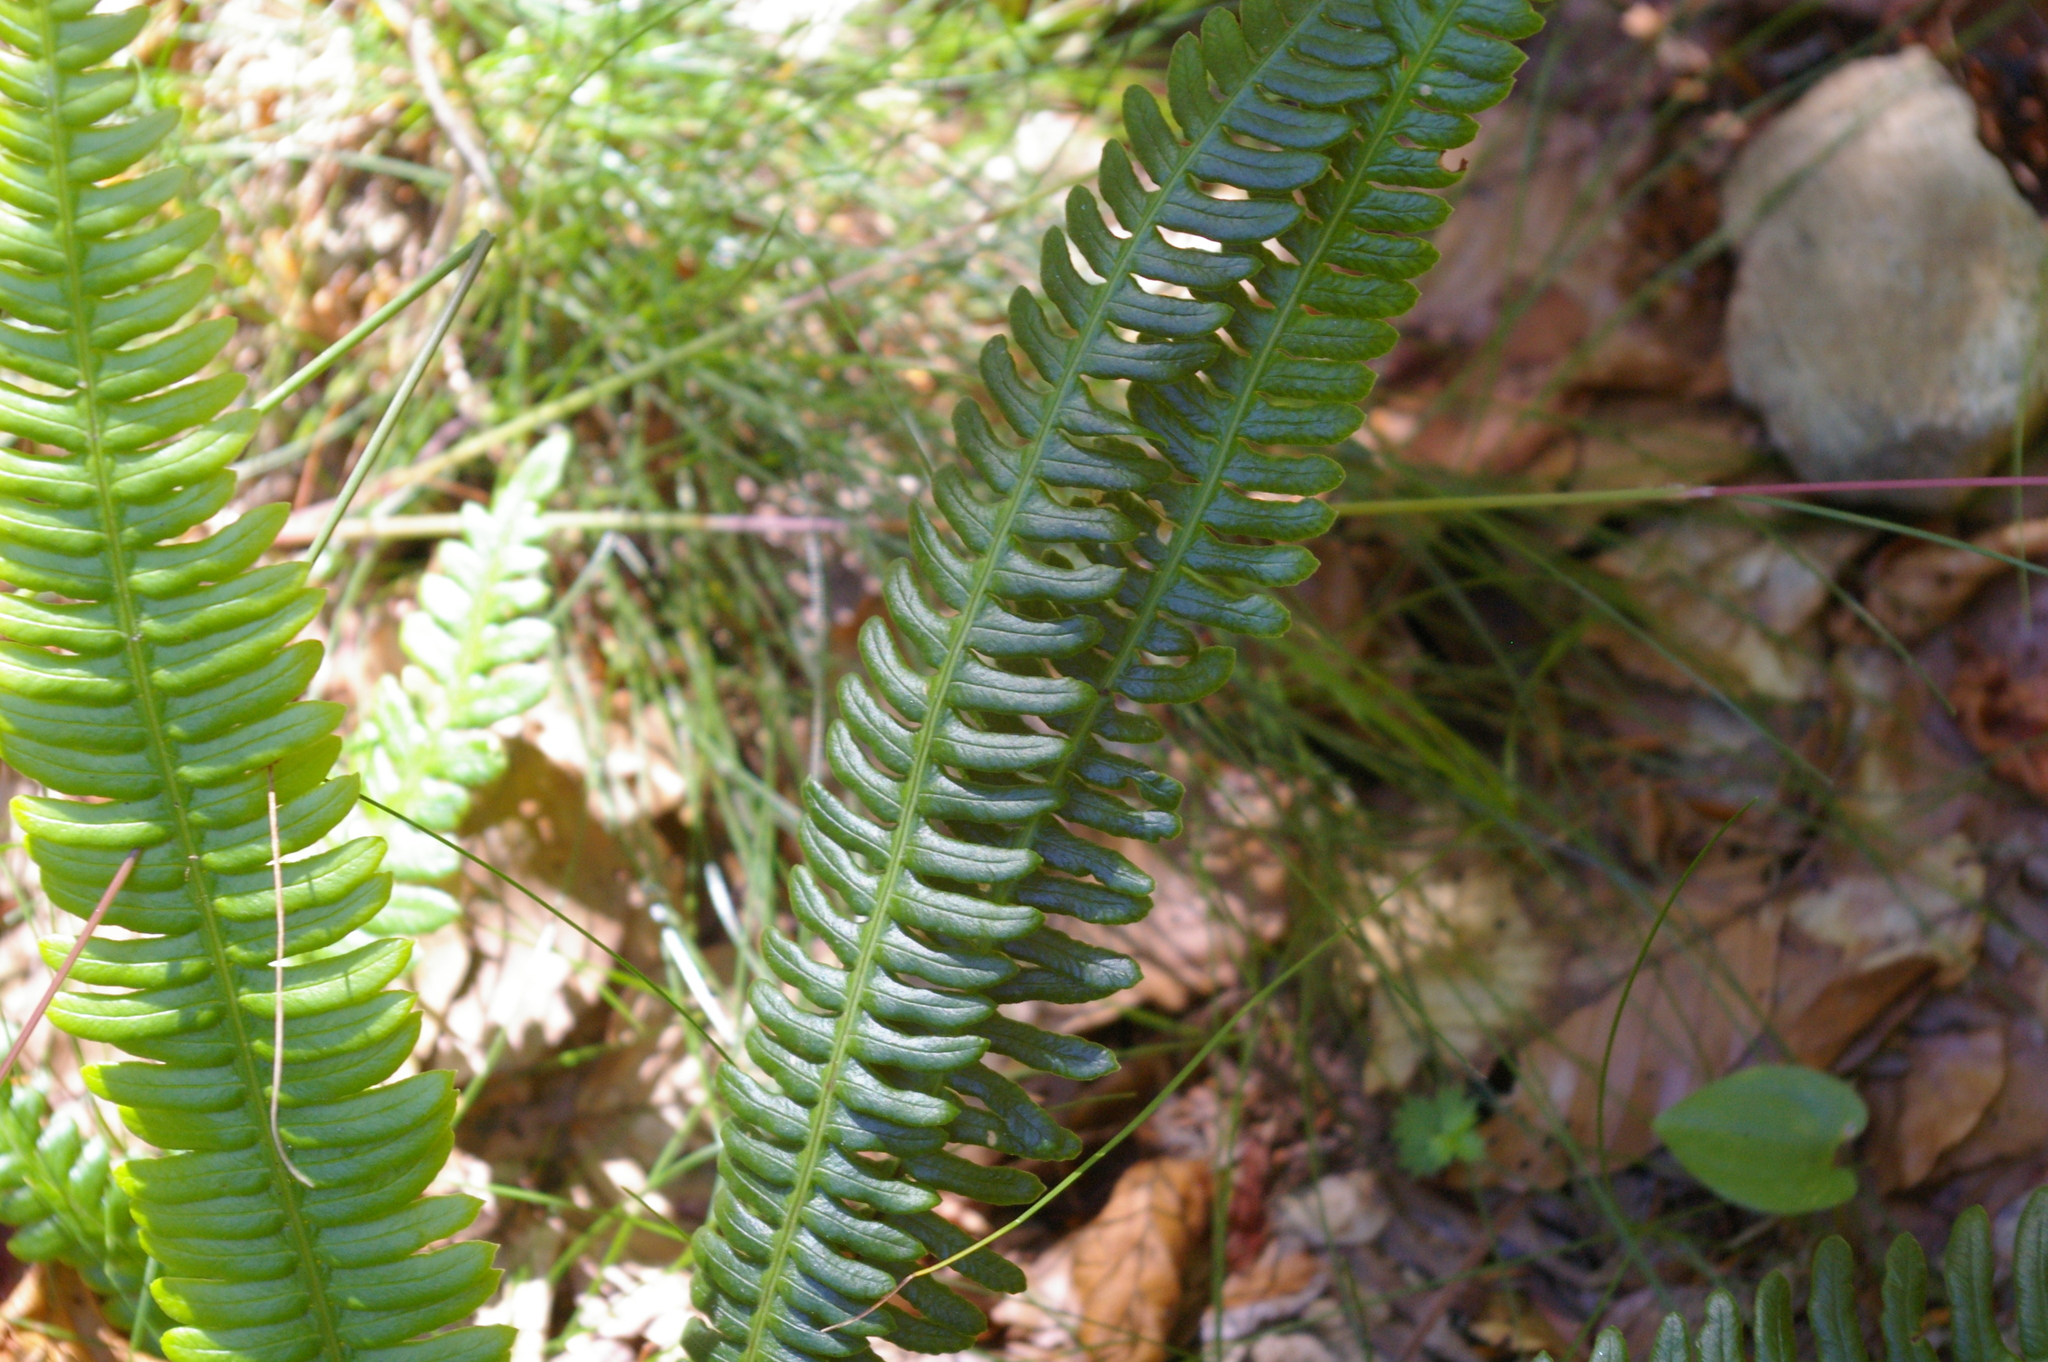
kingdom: Plantae
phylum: Tracheophyta
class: Polypodiopsida
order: Polypodiales
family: Blechnaceae
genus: Struthiopteris
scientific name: Struthiopteris spicant
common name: Deer fern
